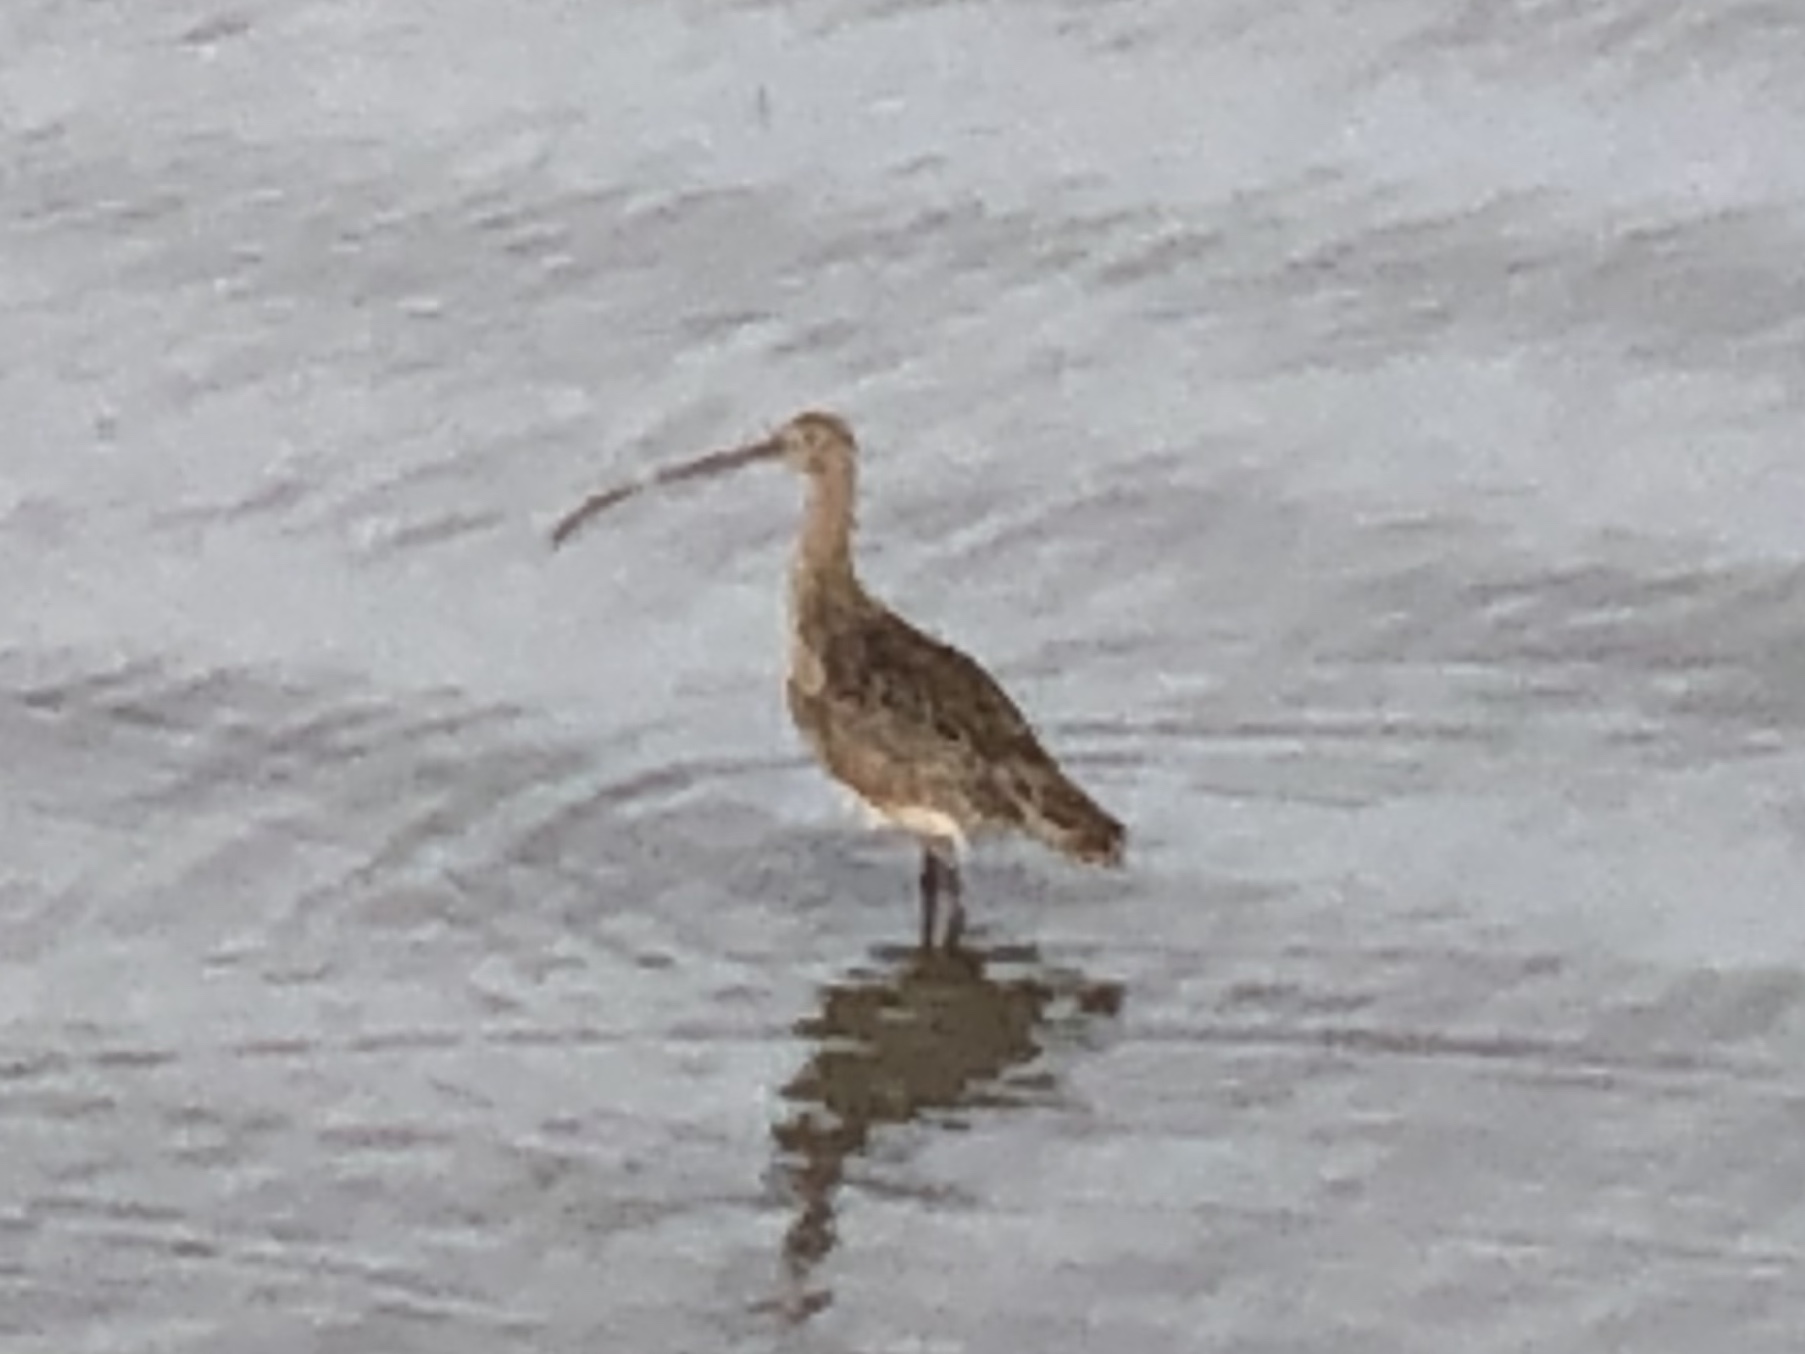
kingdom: Animalia
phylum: Chordata
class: Aves
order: Charadriiformes
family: Scolopacidae
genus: Numenius
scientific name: Numenius americanus
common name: Long-billed curlew
